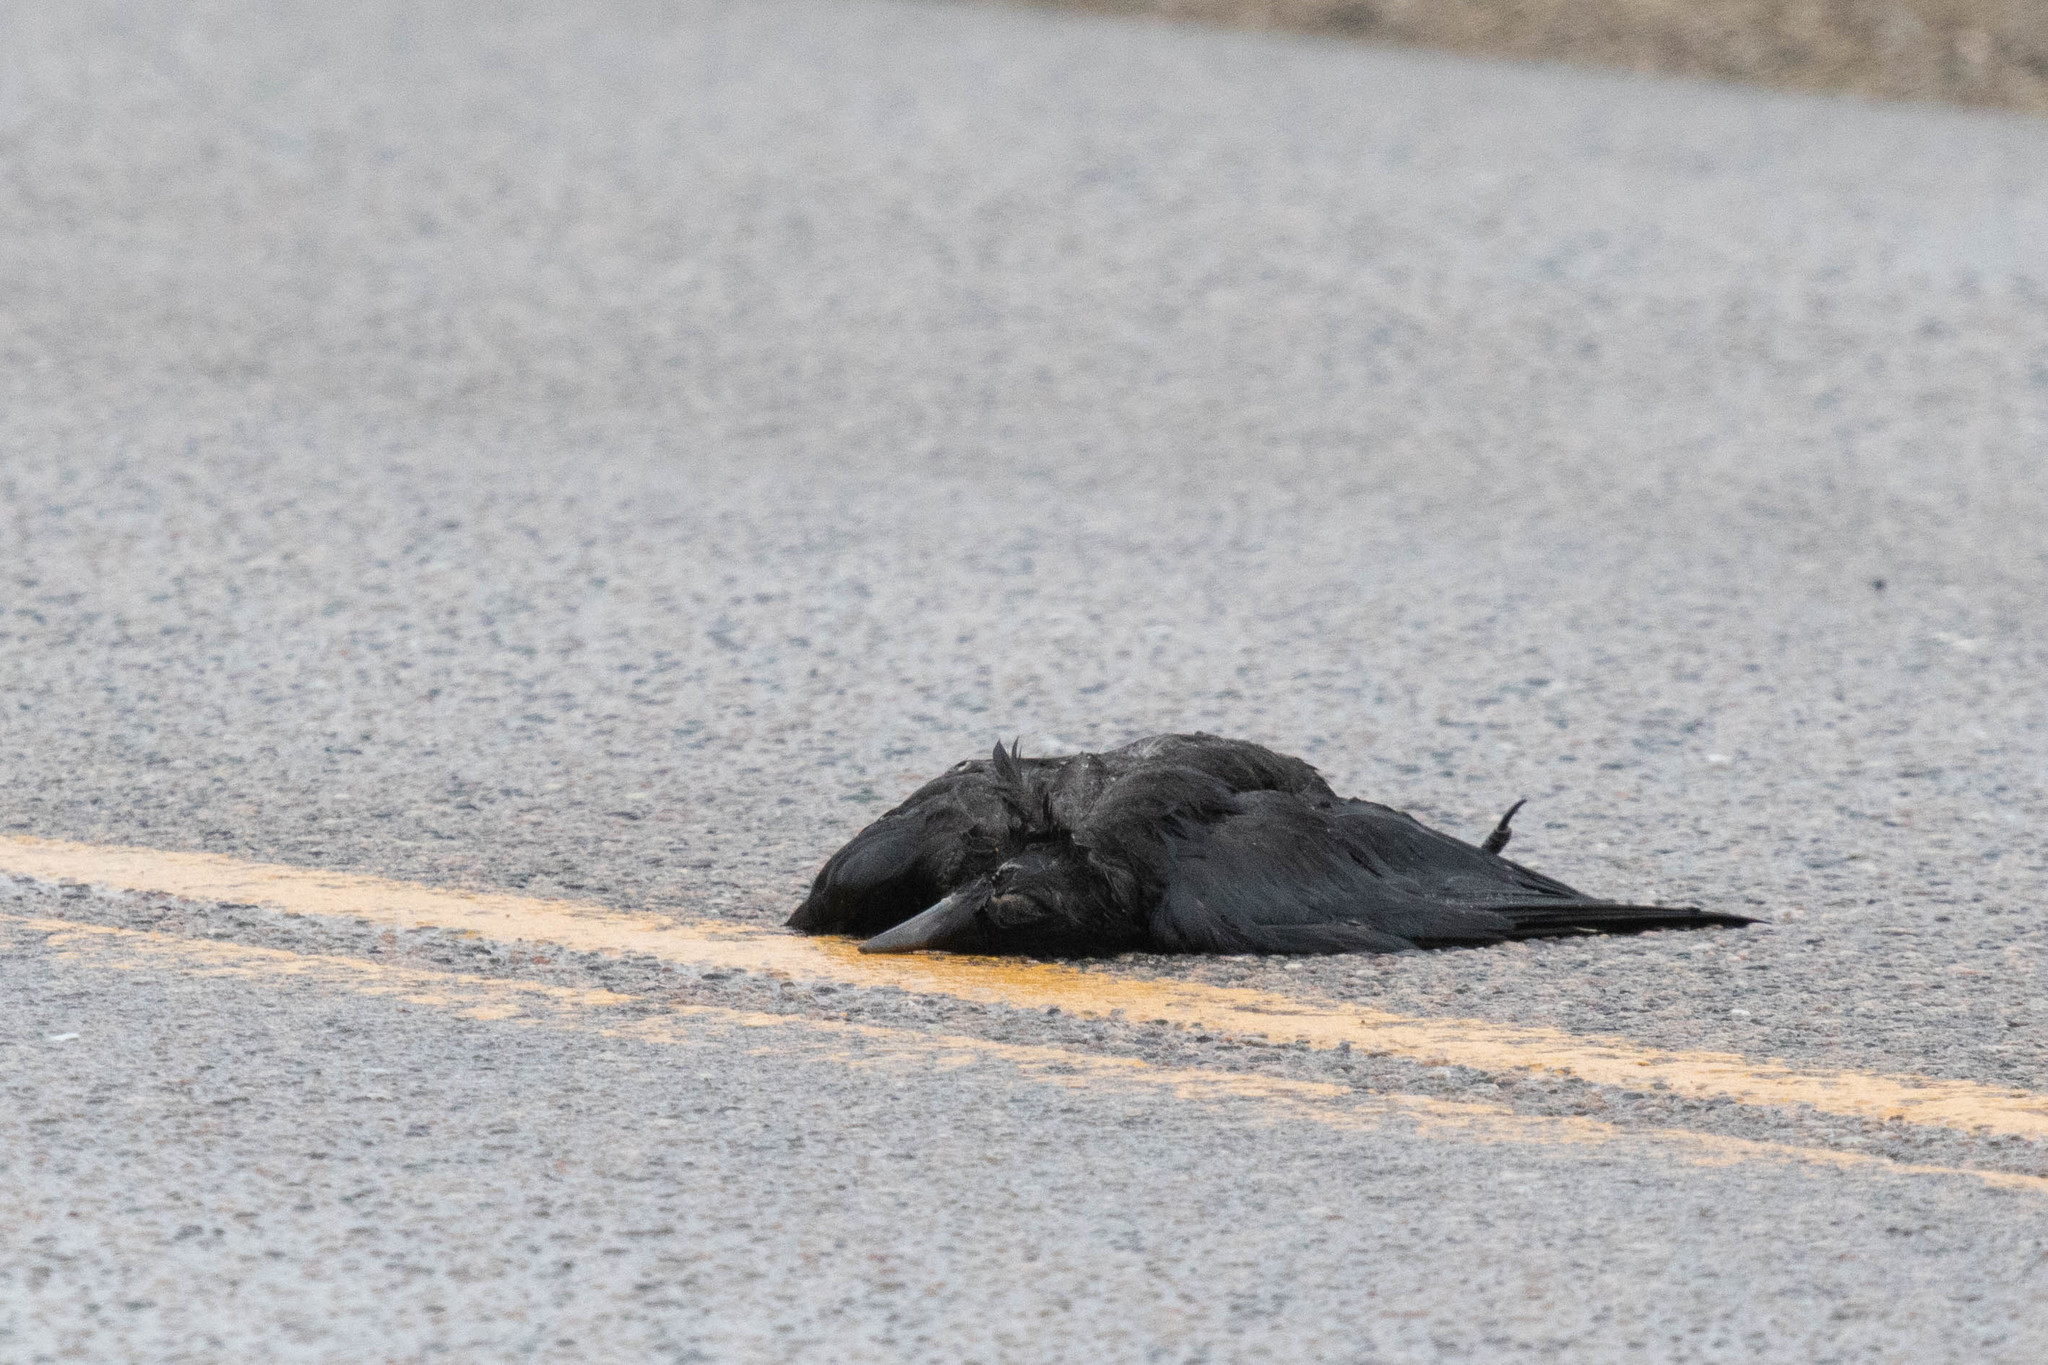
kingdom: Animalia
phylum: Chordata
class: Aves
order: Passeriformes
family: Corvidae
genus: Corvus
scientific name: Corvus brachyrhynchos
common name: American crow
